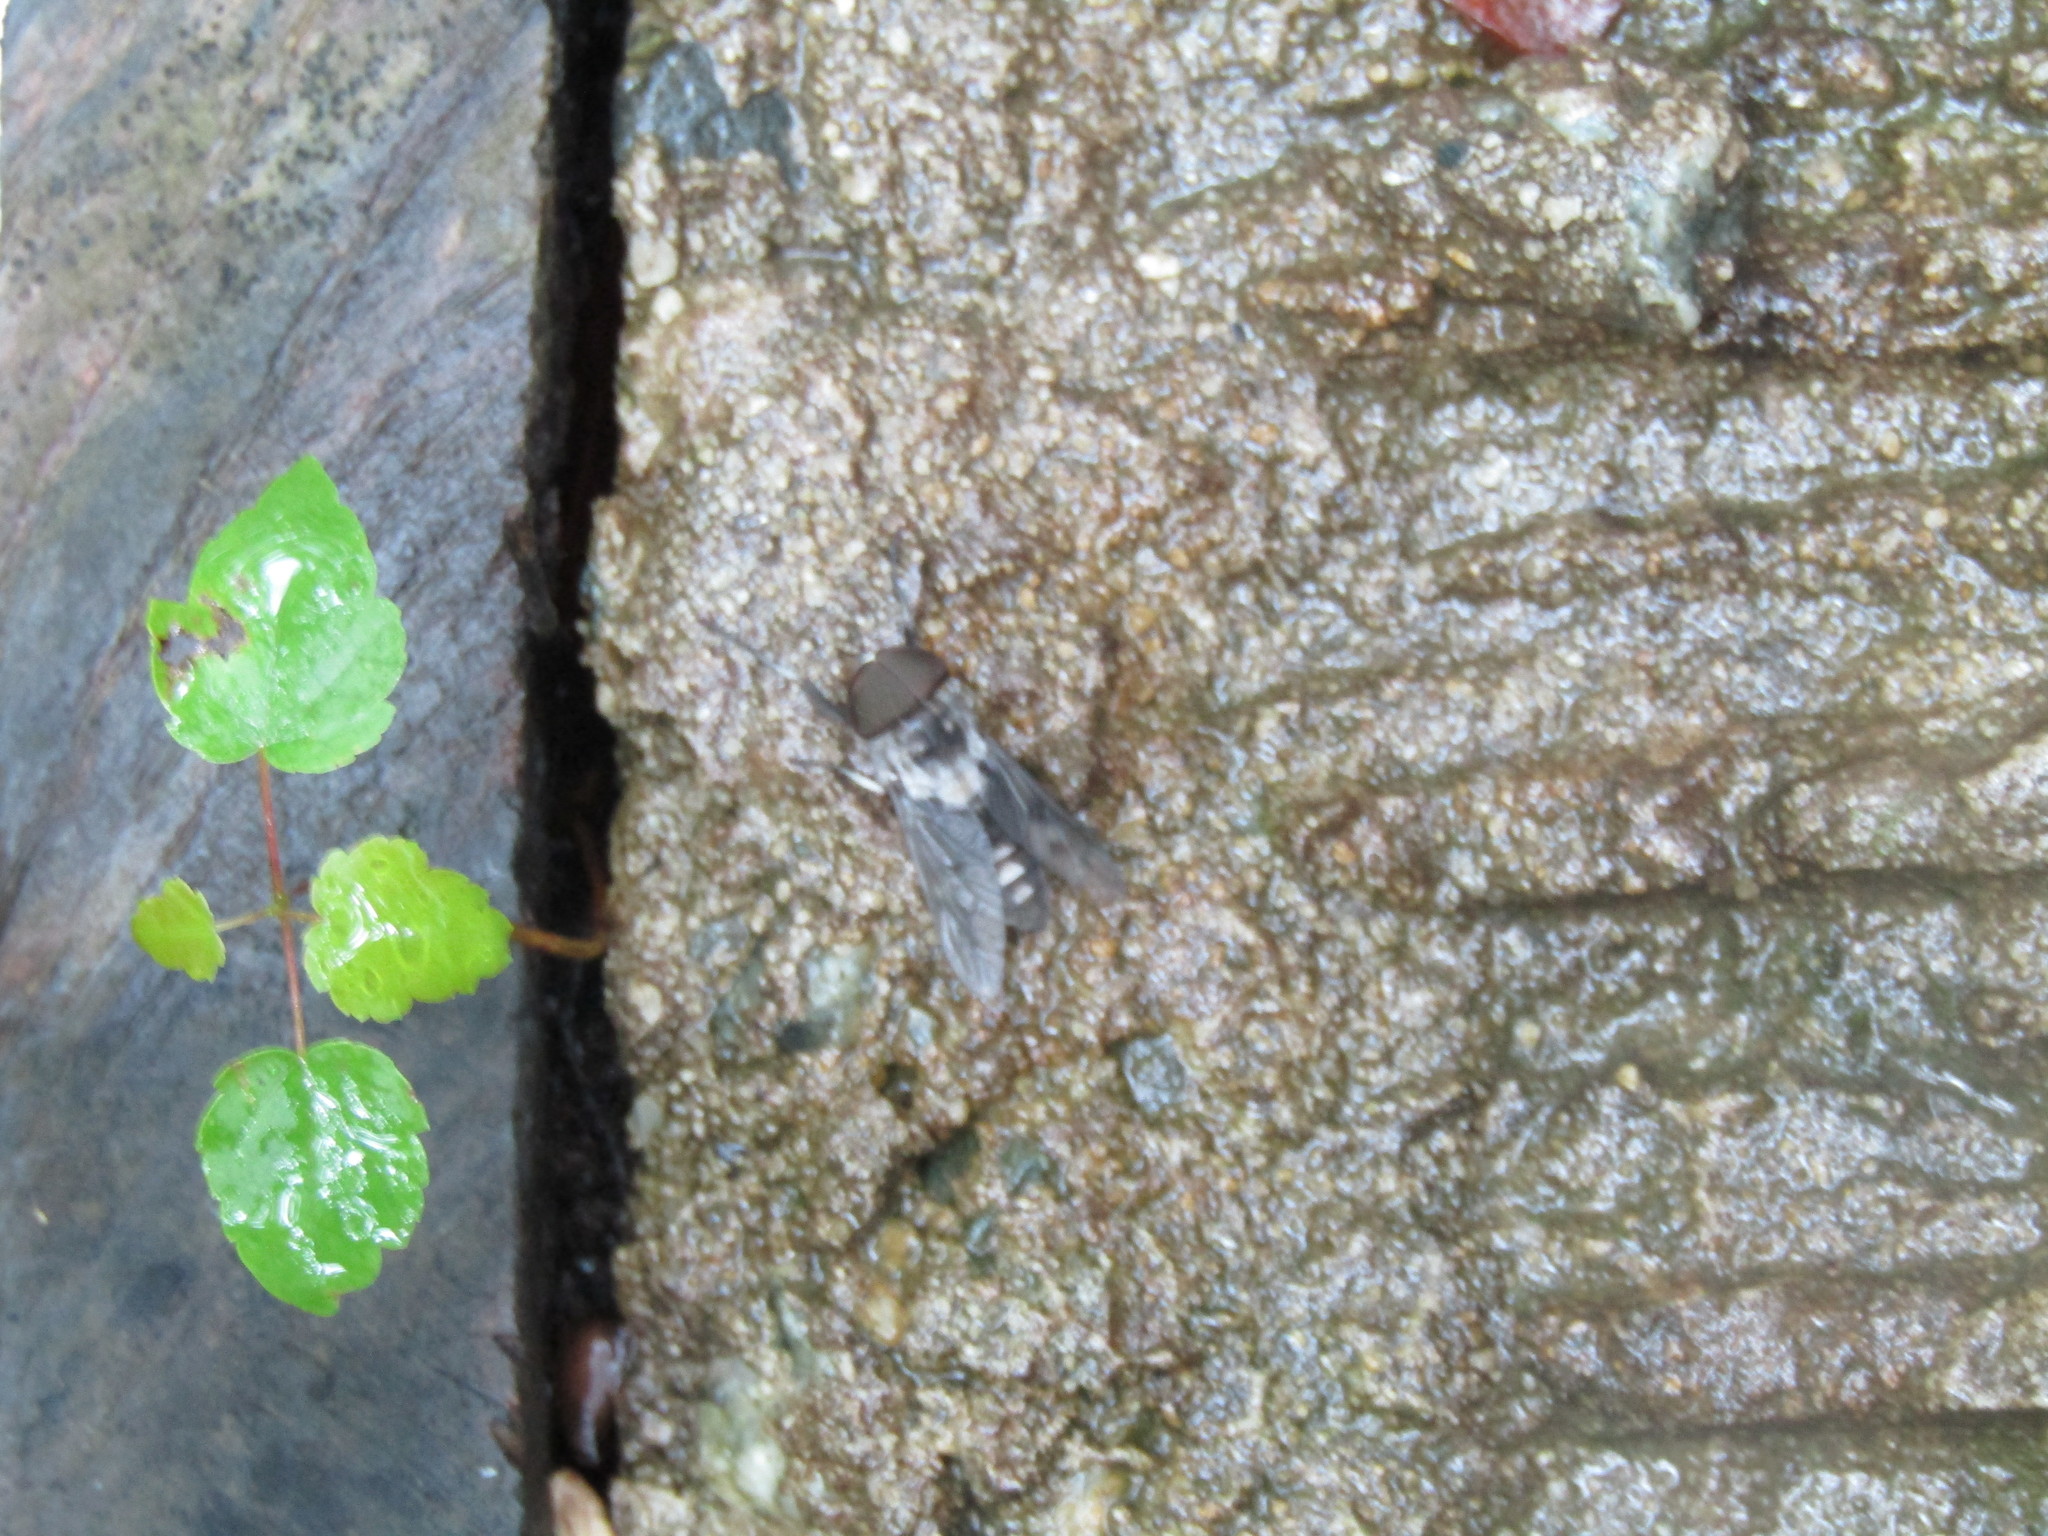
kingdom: Animalia
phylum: Arthropoda
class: Insecta
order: Diptera
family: Tabanidae
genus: Tabanus
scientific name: Tabanus trimaculatus
